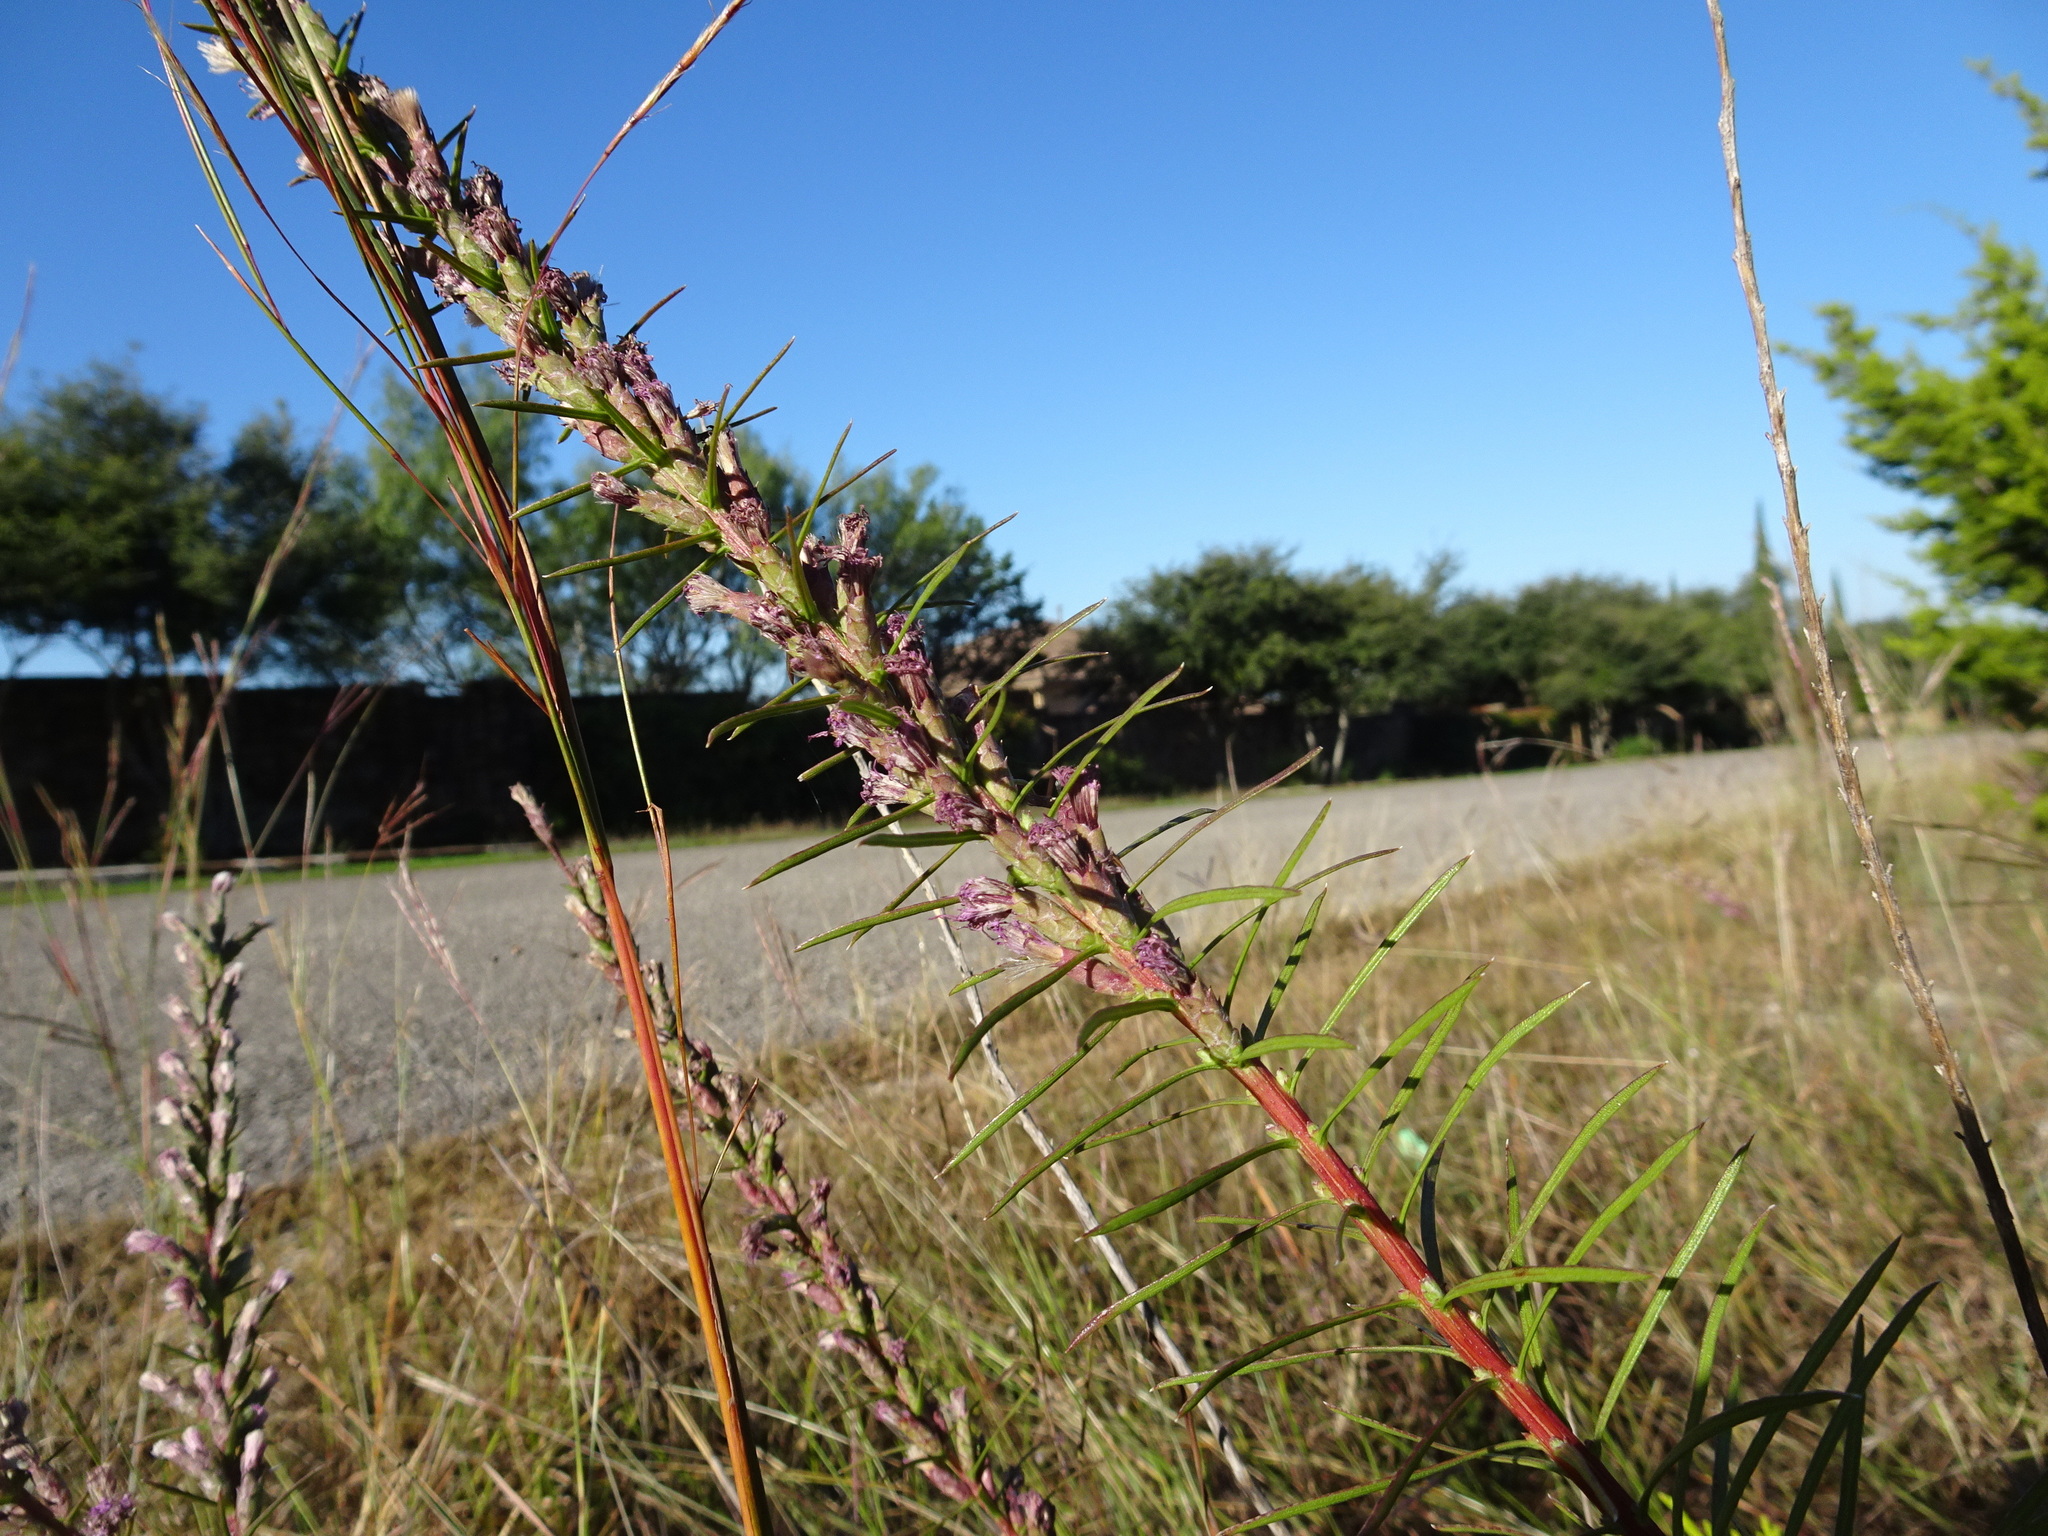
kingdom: Plantae
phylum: Tracheophyta
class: Magnoliopsida
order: Asterales
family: Asteraceae
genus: Liatris
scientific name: Liatris punctata
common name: Dotted gayfeather
